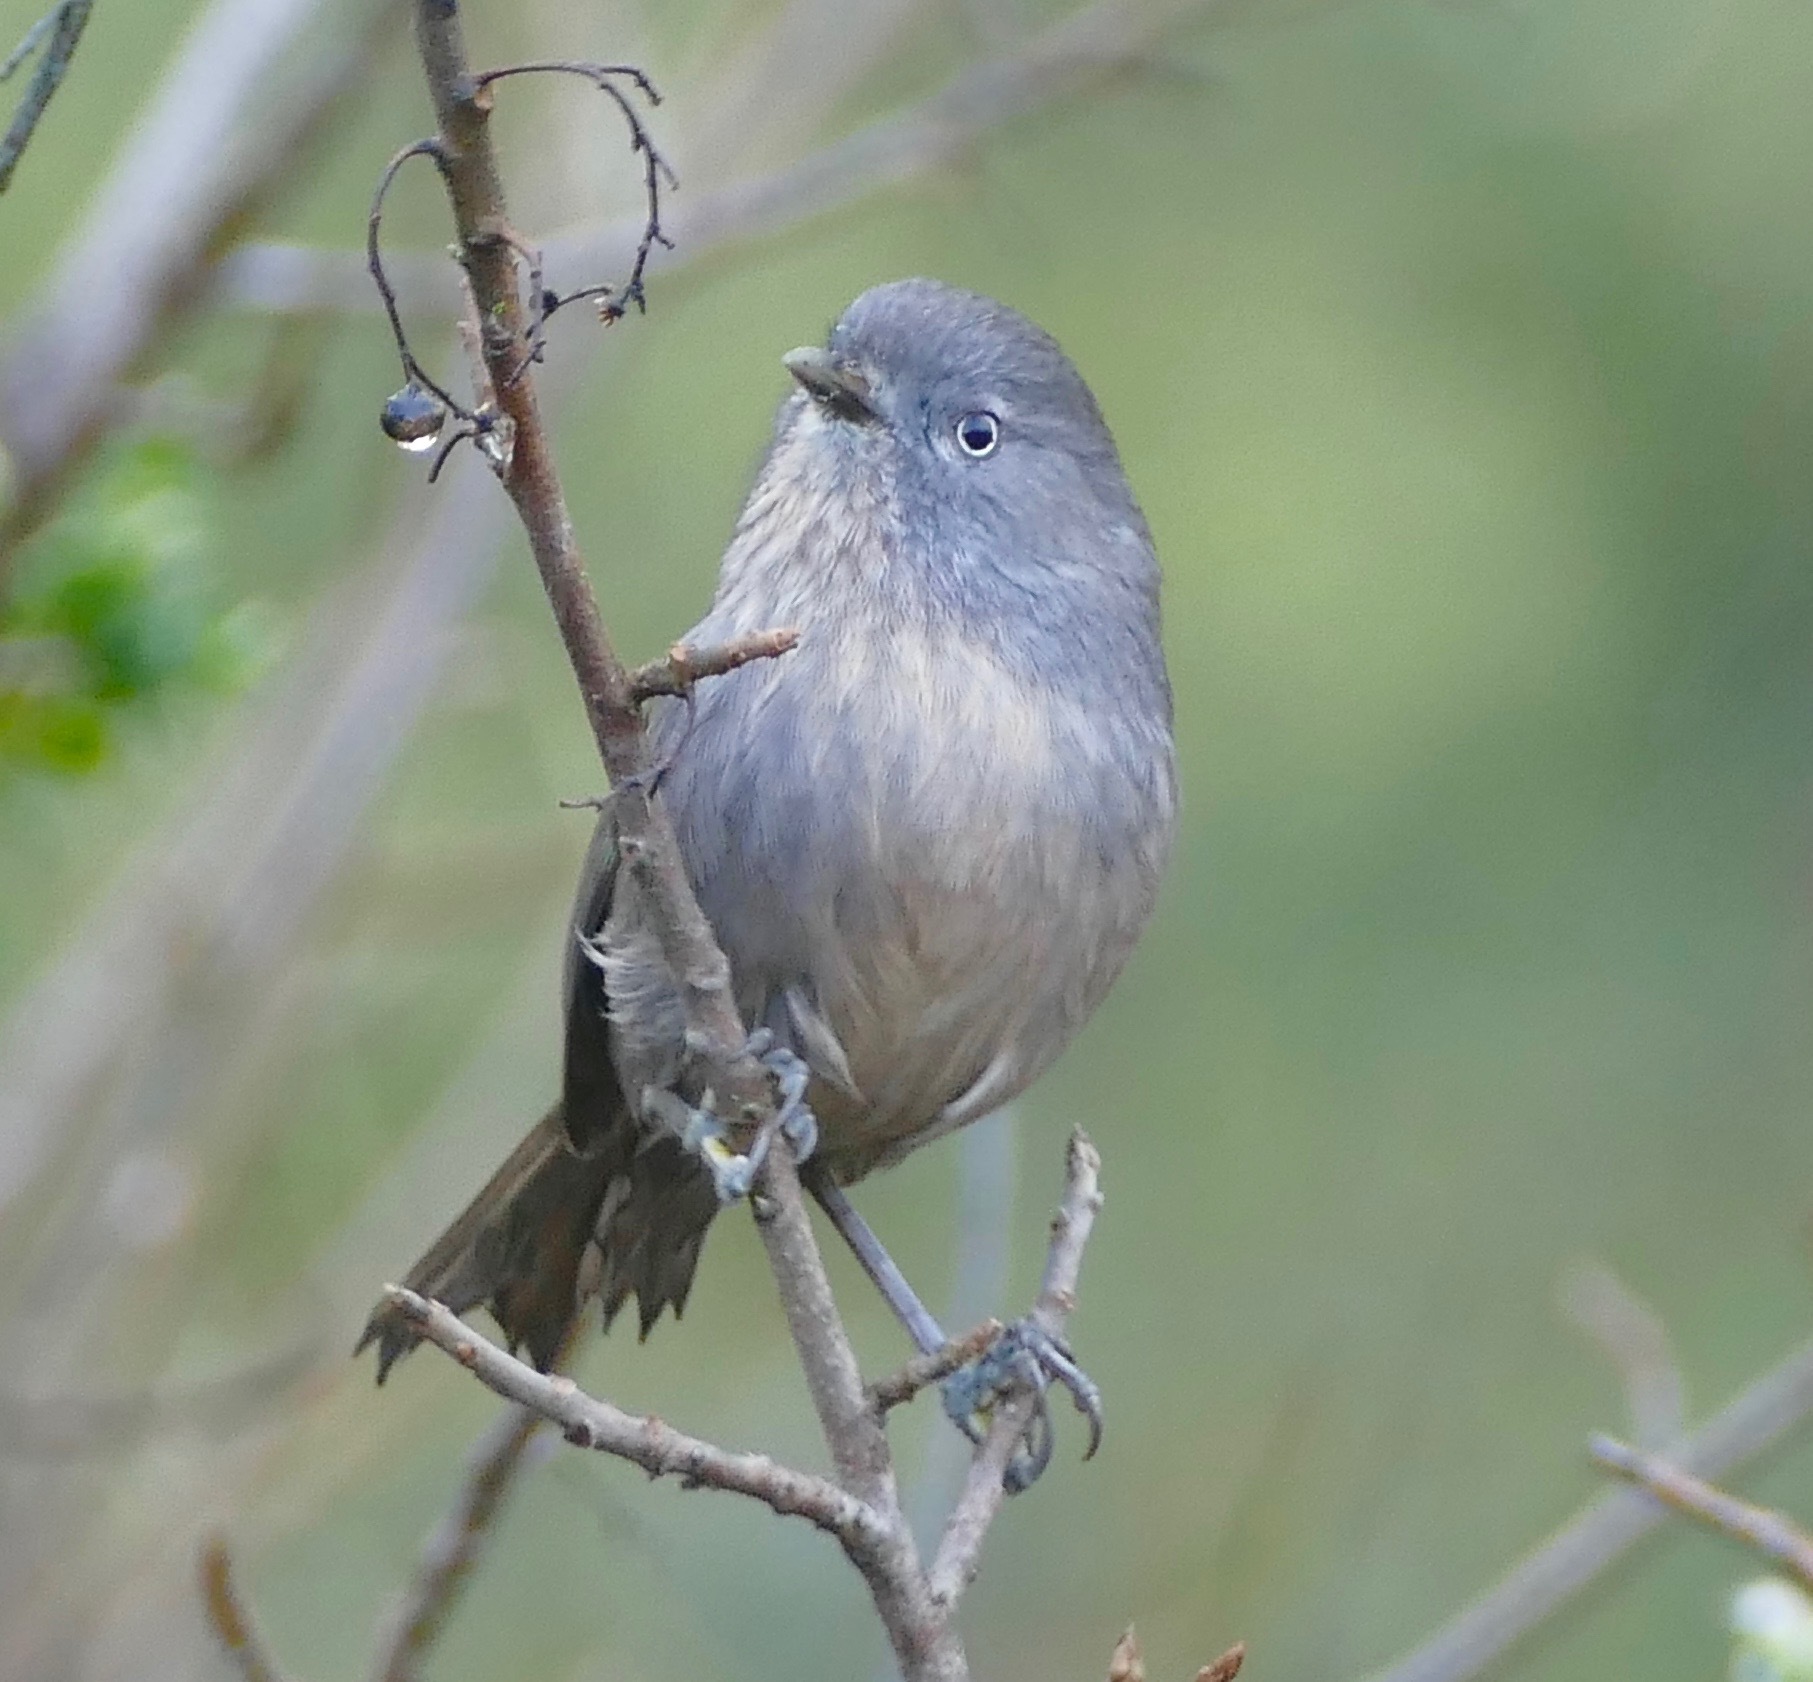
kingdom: Animalia
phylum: Chordata
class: Aves
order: Passeriformes
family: Sylviidae
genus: Chamaea
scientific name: Chamaea fasciata
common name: Wrentit
